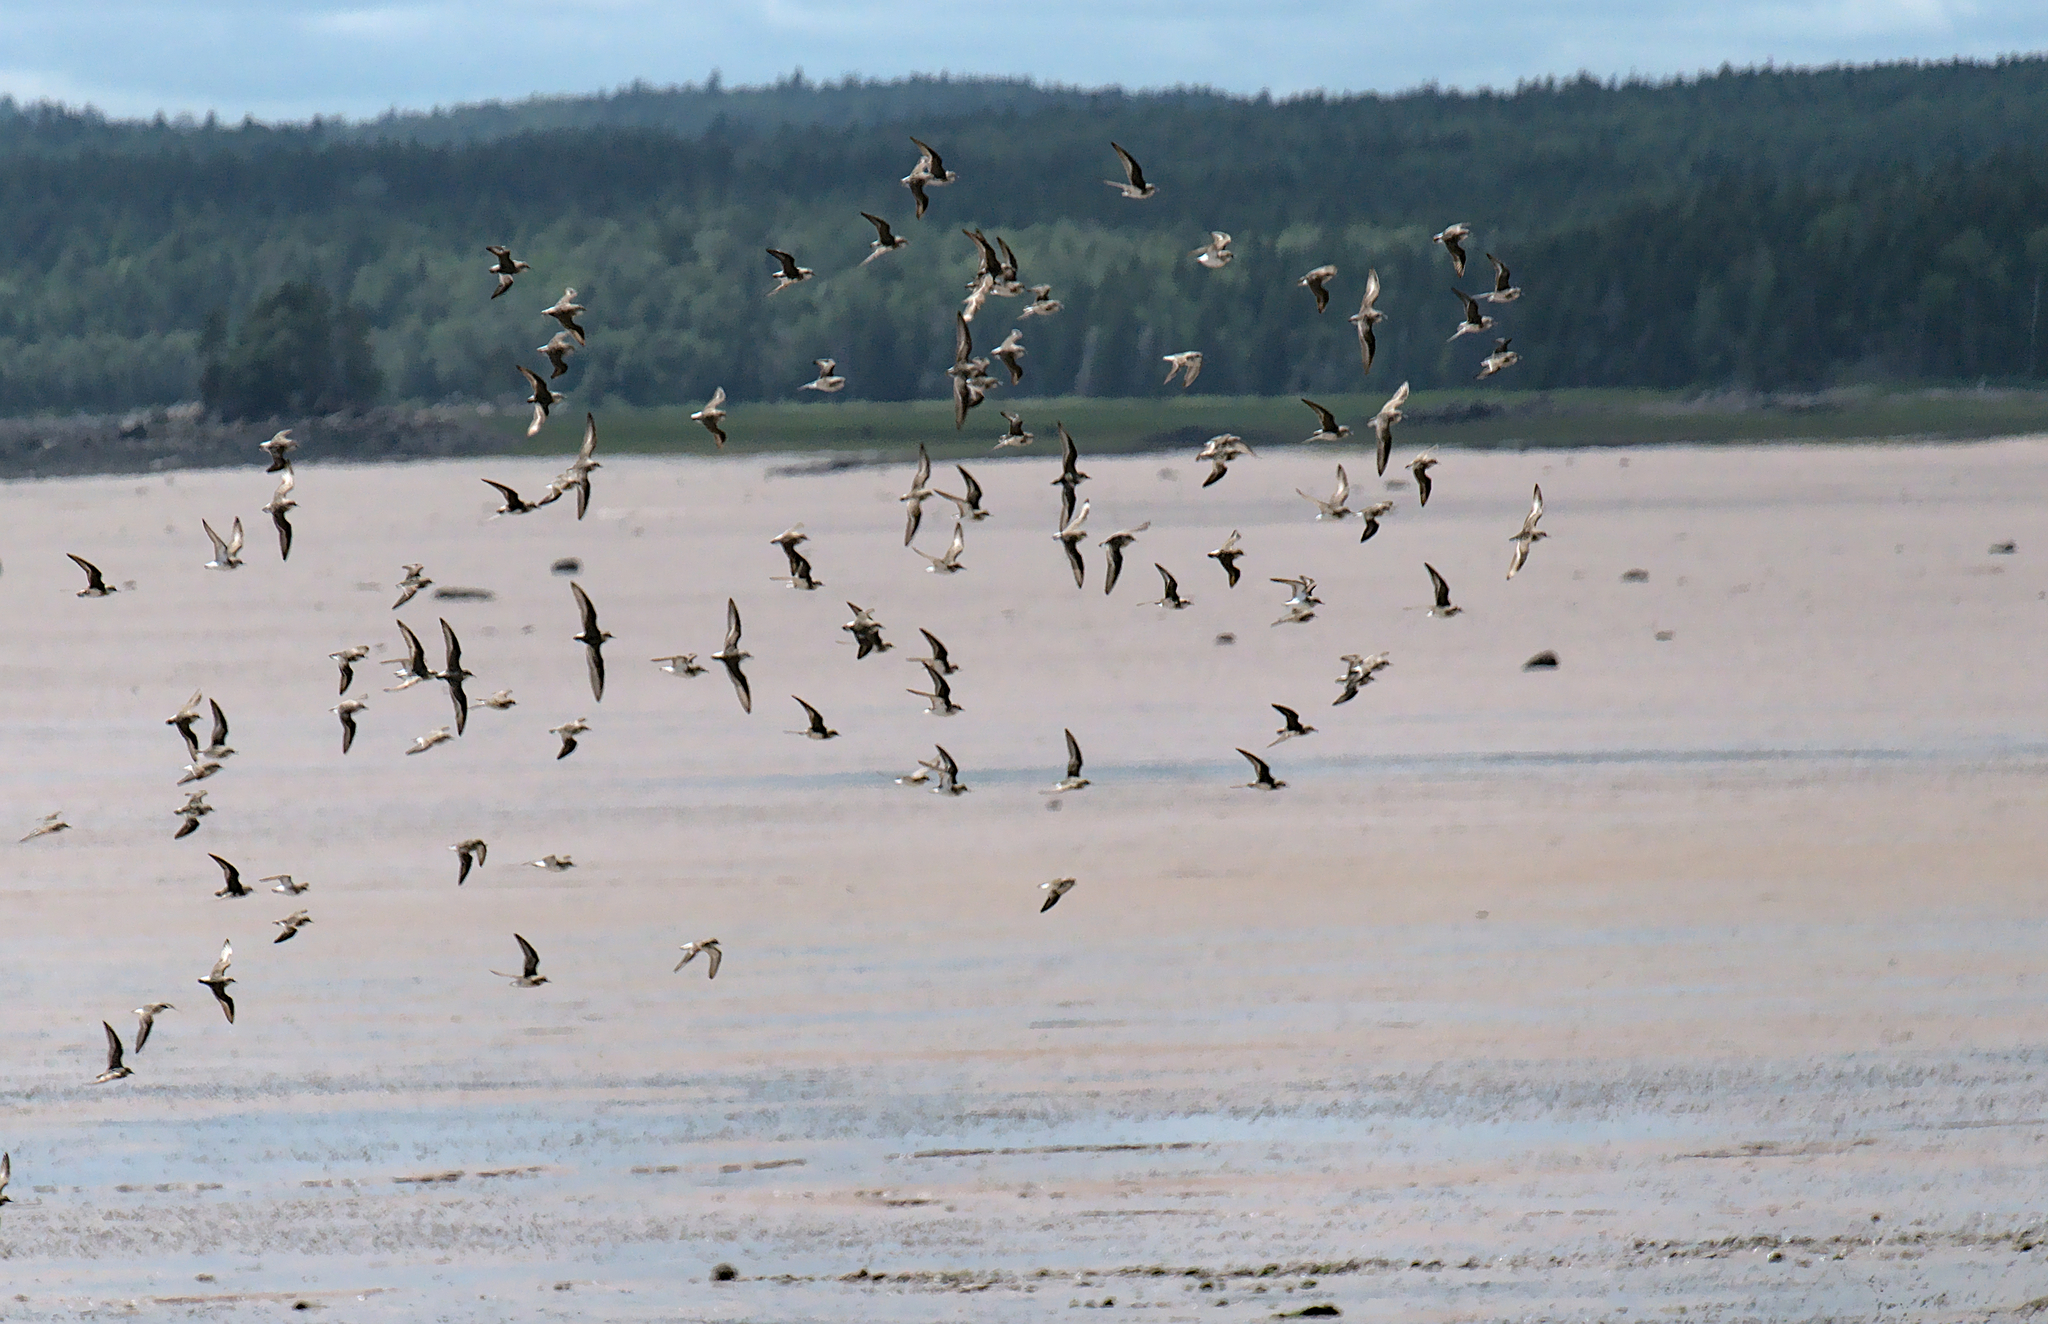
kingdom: Animalia
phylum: Chordata
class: Aves
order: Charadriiformes
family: Scolopacidae
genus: Calidris
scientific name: Calidris pusilla
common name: Semipalmated sandpiper
